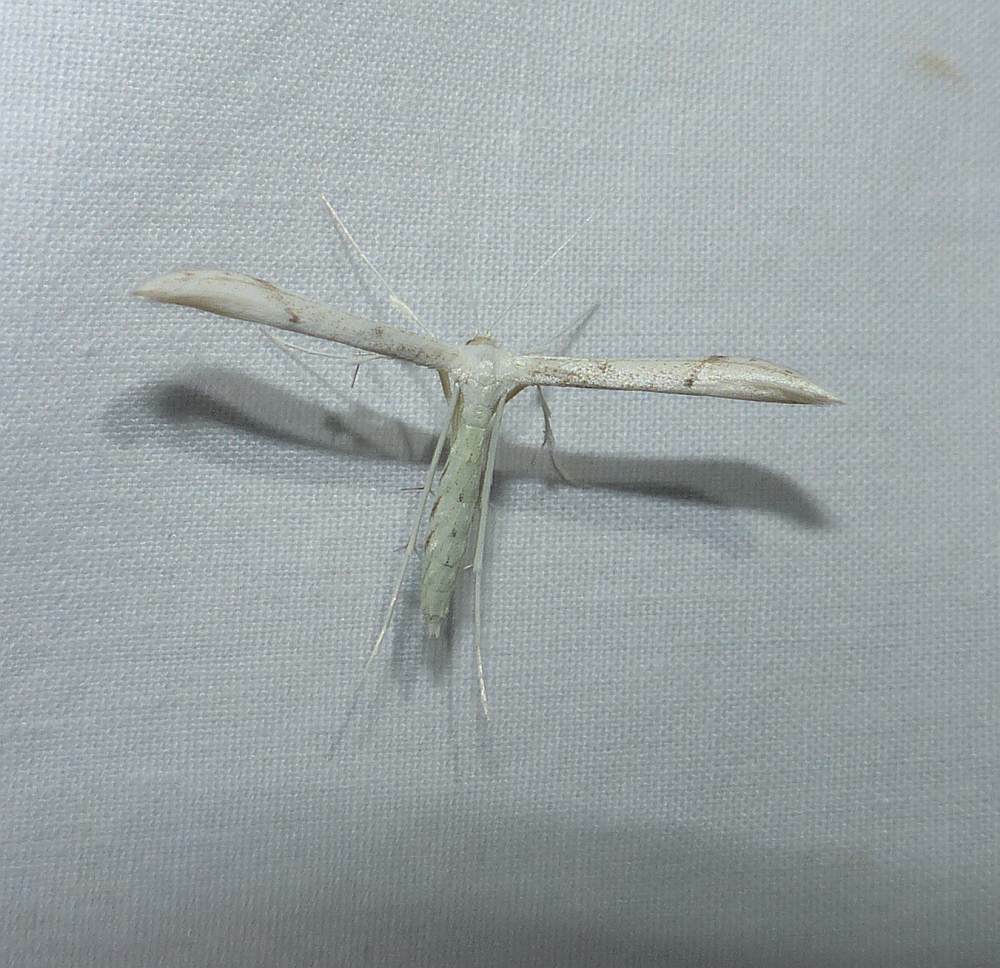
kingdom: Animalia
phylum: Arthropoda
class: Insecta
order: Lepidoptera
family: Pterophoridae
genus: Hellinsia
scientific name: Hellinsia elliottii
